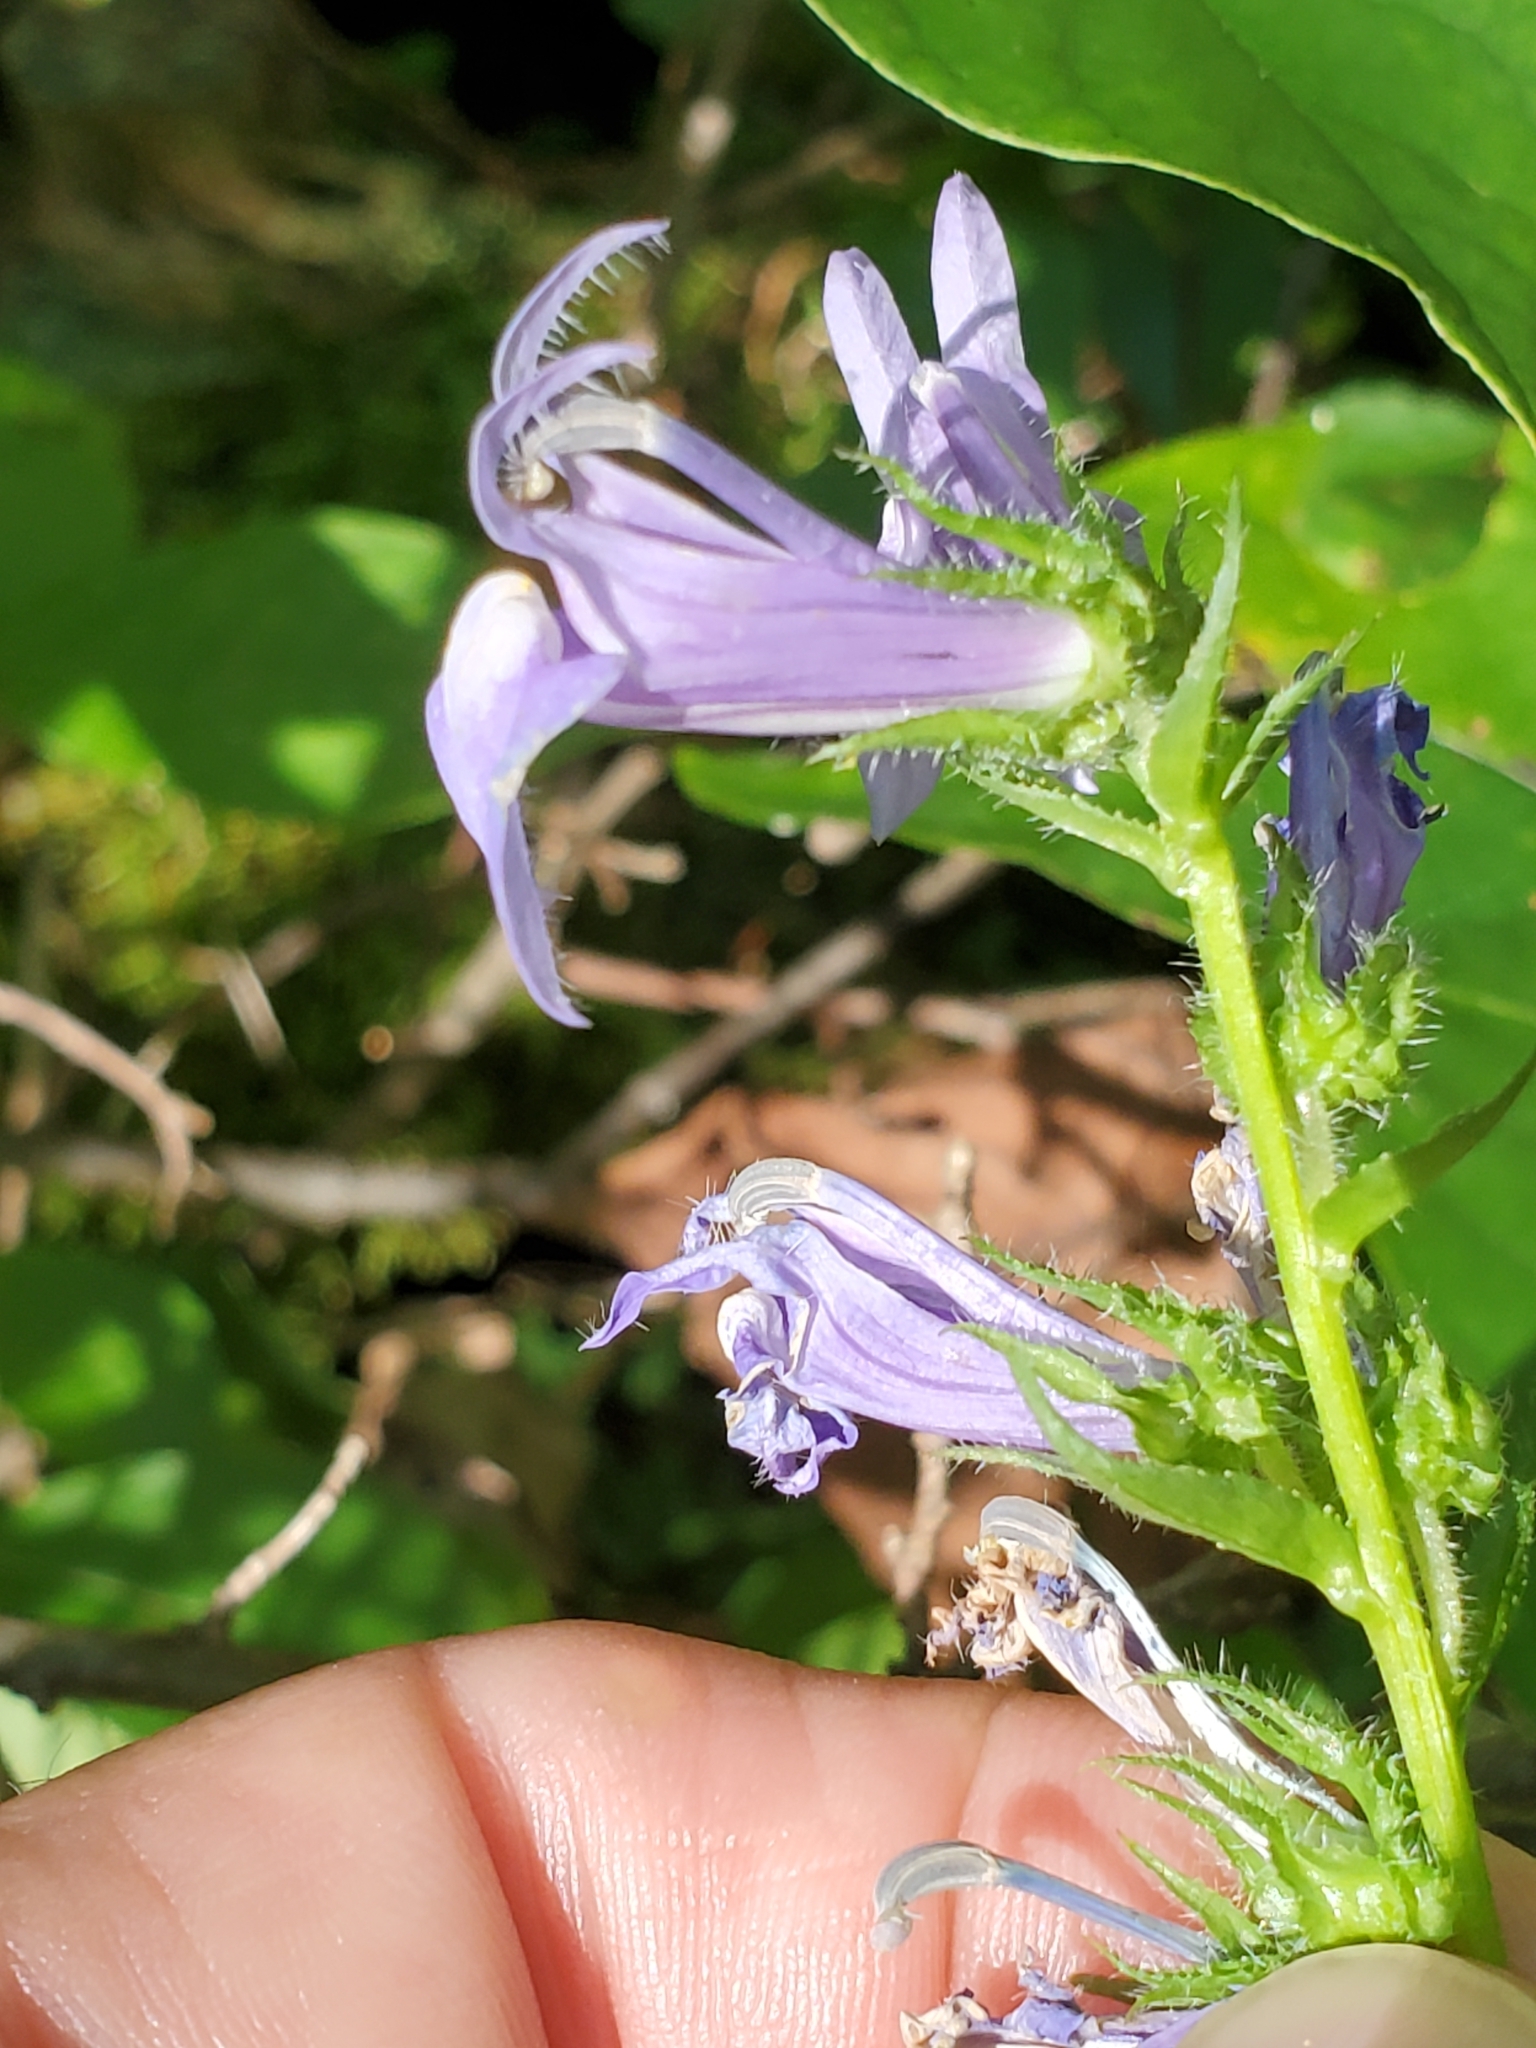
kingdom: Plantae
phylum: Tracheophyta
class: Magnoliopsida
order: Asterales
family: Campanulaceae
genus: Lobelia
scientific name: Lobelia siphilitica
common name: Great lobelia
